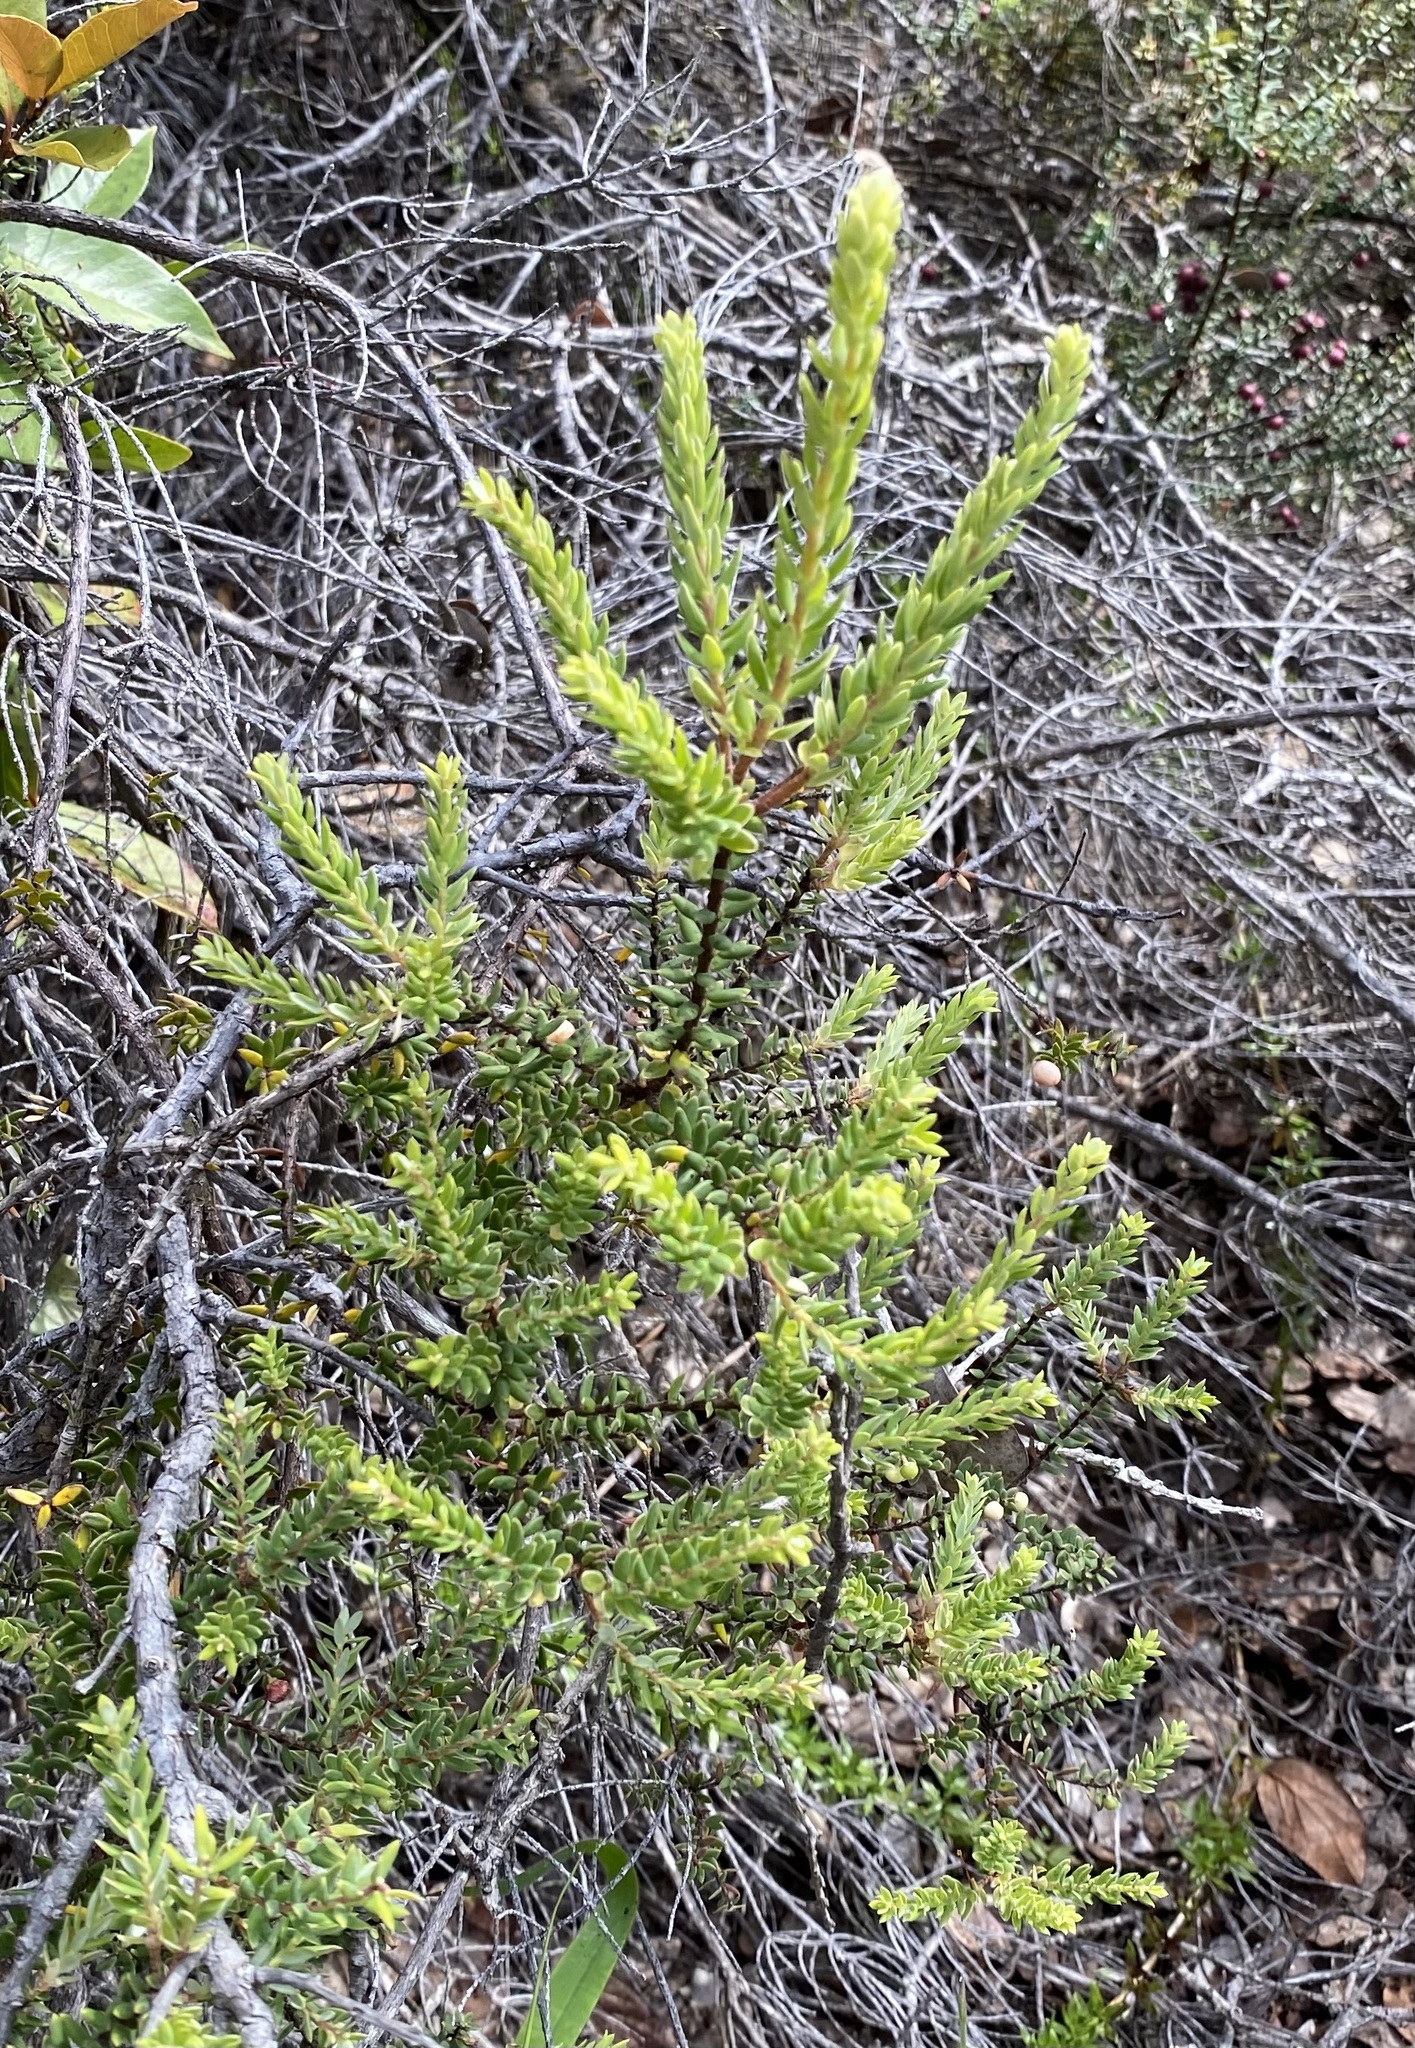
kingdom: Plantae
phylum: Tracheophyta
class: Magnoliopsida
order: Ericales
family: Ericaceae
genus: Leptecophylla
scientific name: Leptecophylla tameiameiae
